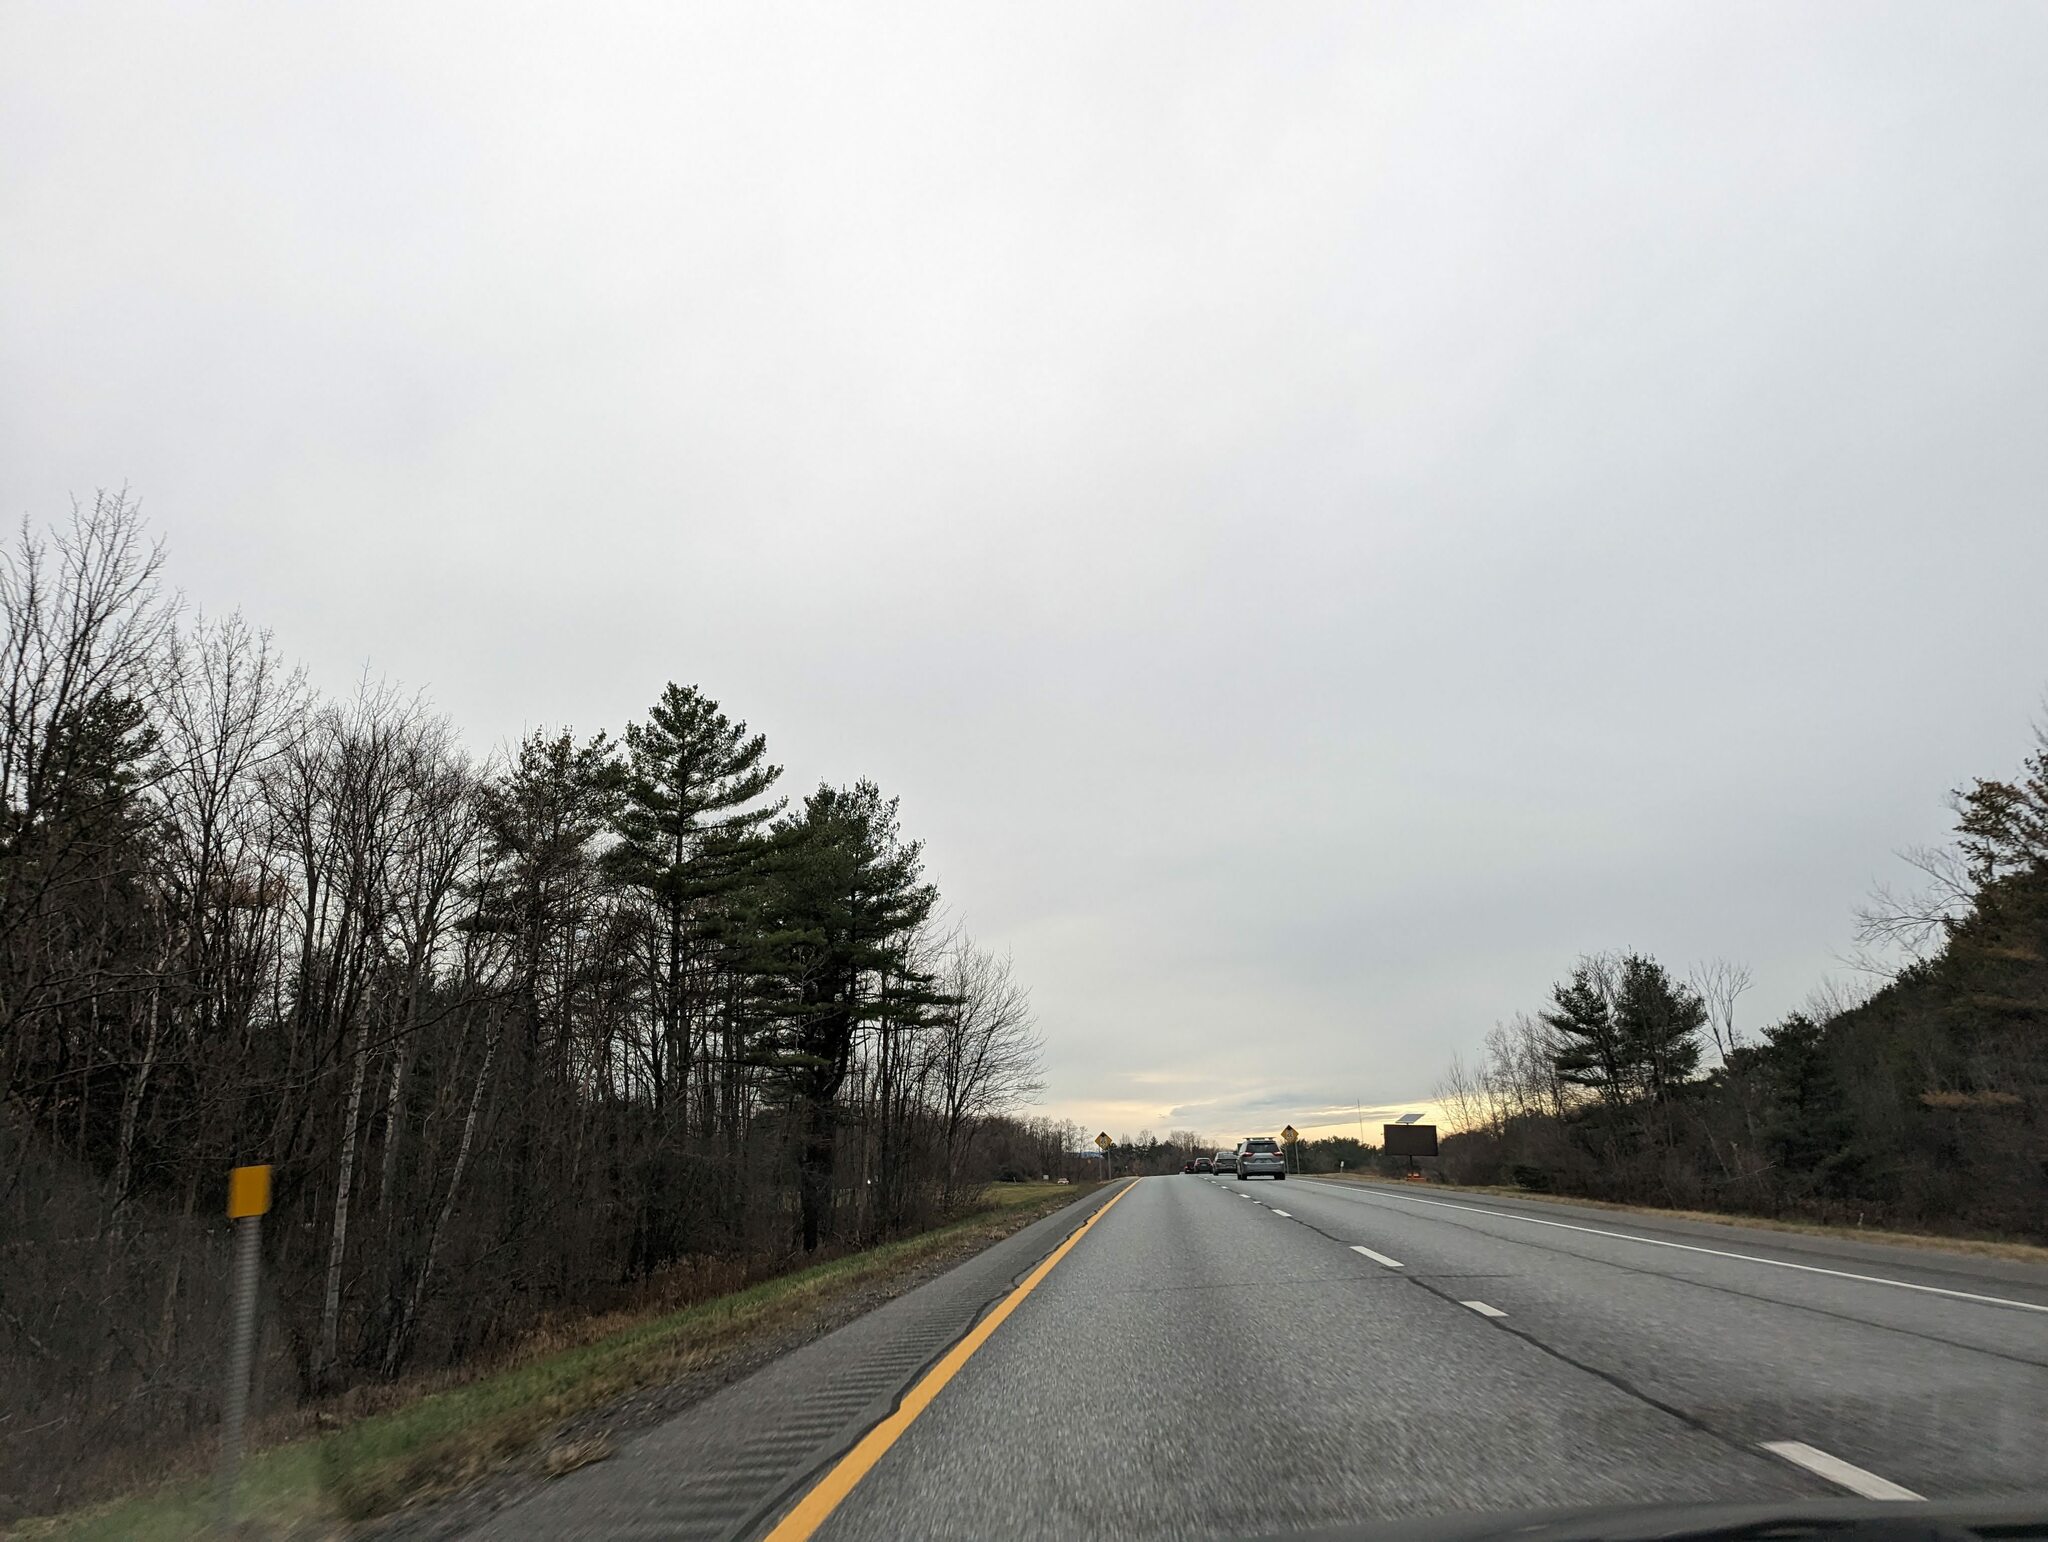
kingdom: Plantae
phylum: Tracheophyta
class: Pinopsida
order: Pinales
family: Pinaceae
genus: Pinus
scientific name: Pinus strobus
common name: Weymouth pine
